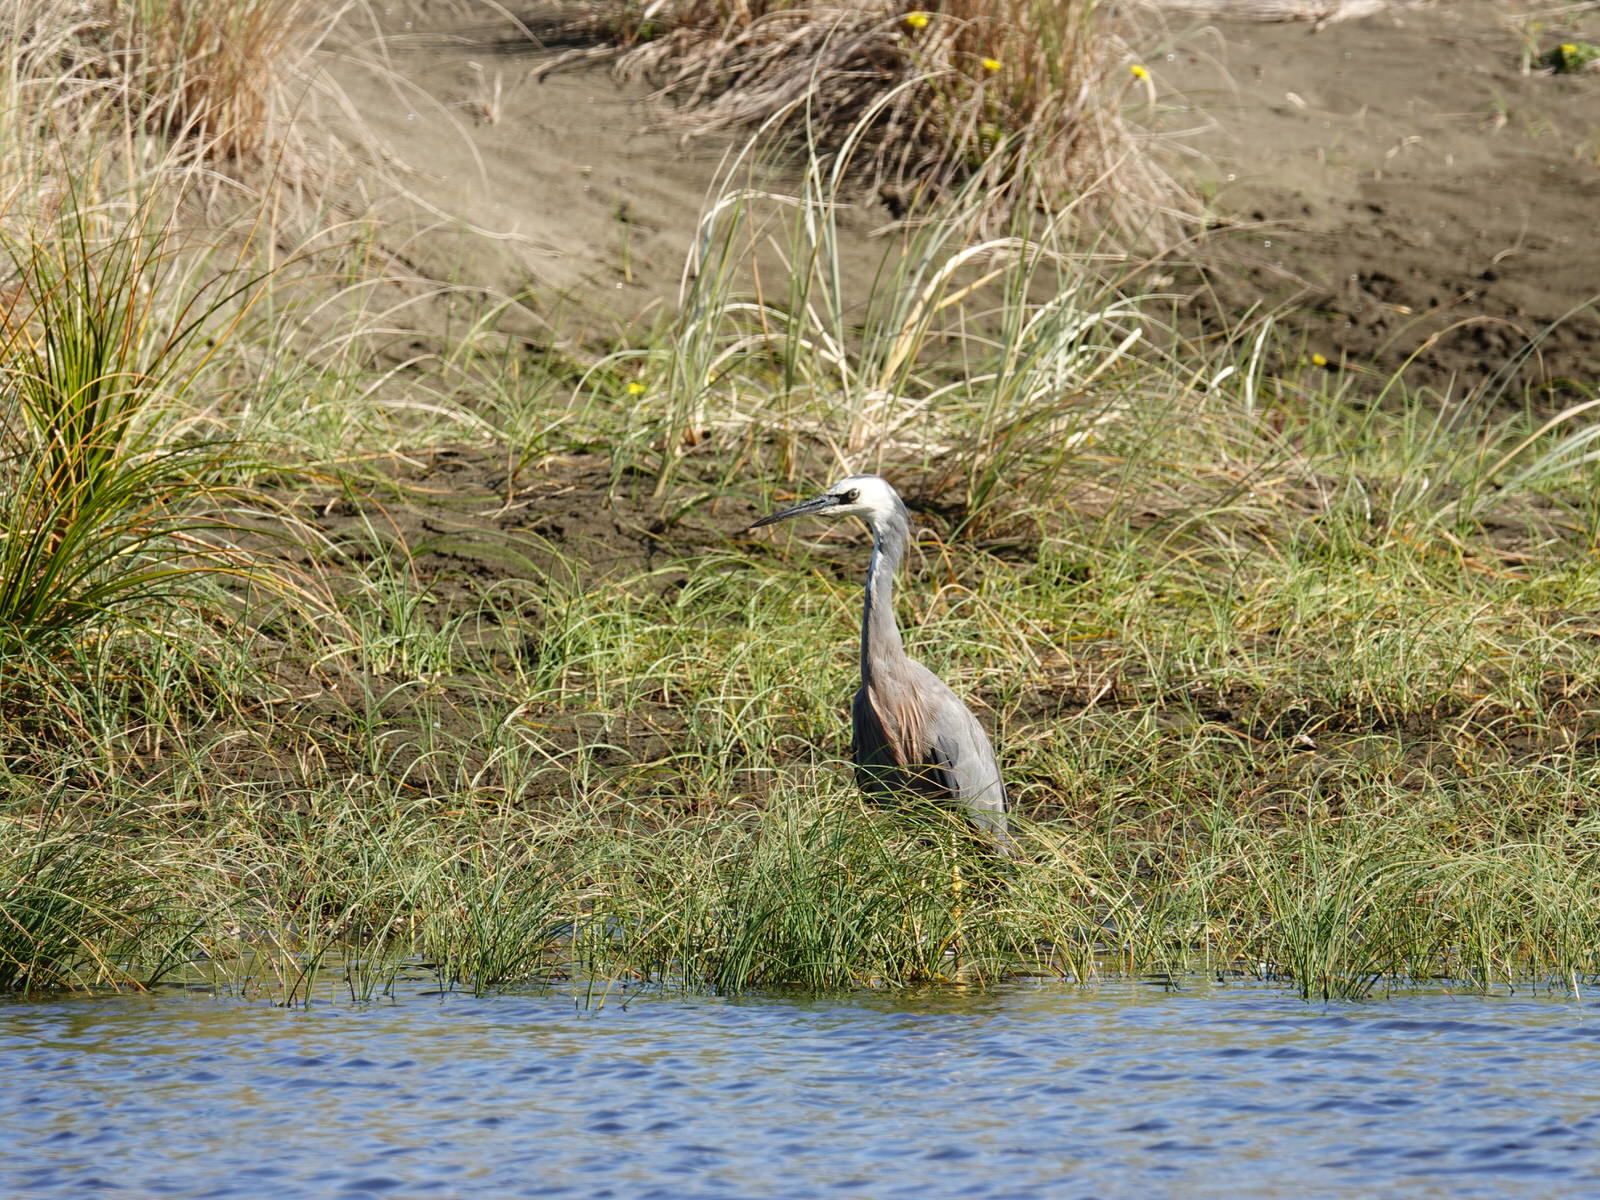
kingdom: Animalia
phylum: Chordata
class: Aves
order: Pelecaniformes
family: Ardeidae
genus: Egretta
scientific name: Egretta novaehollandiae
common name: White-faced heron
